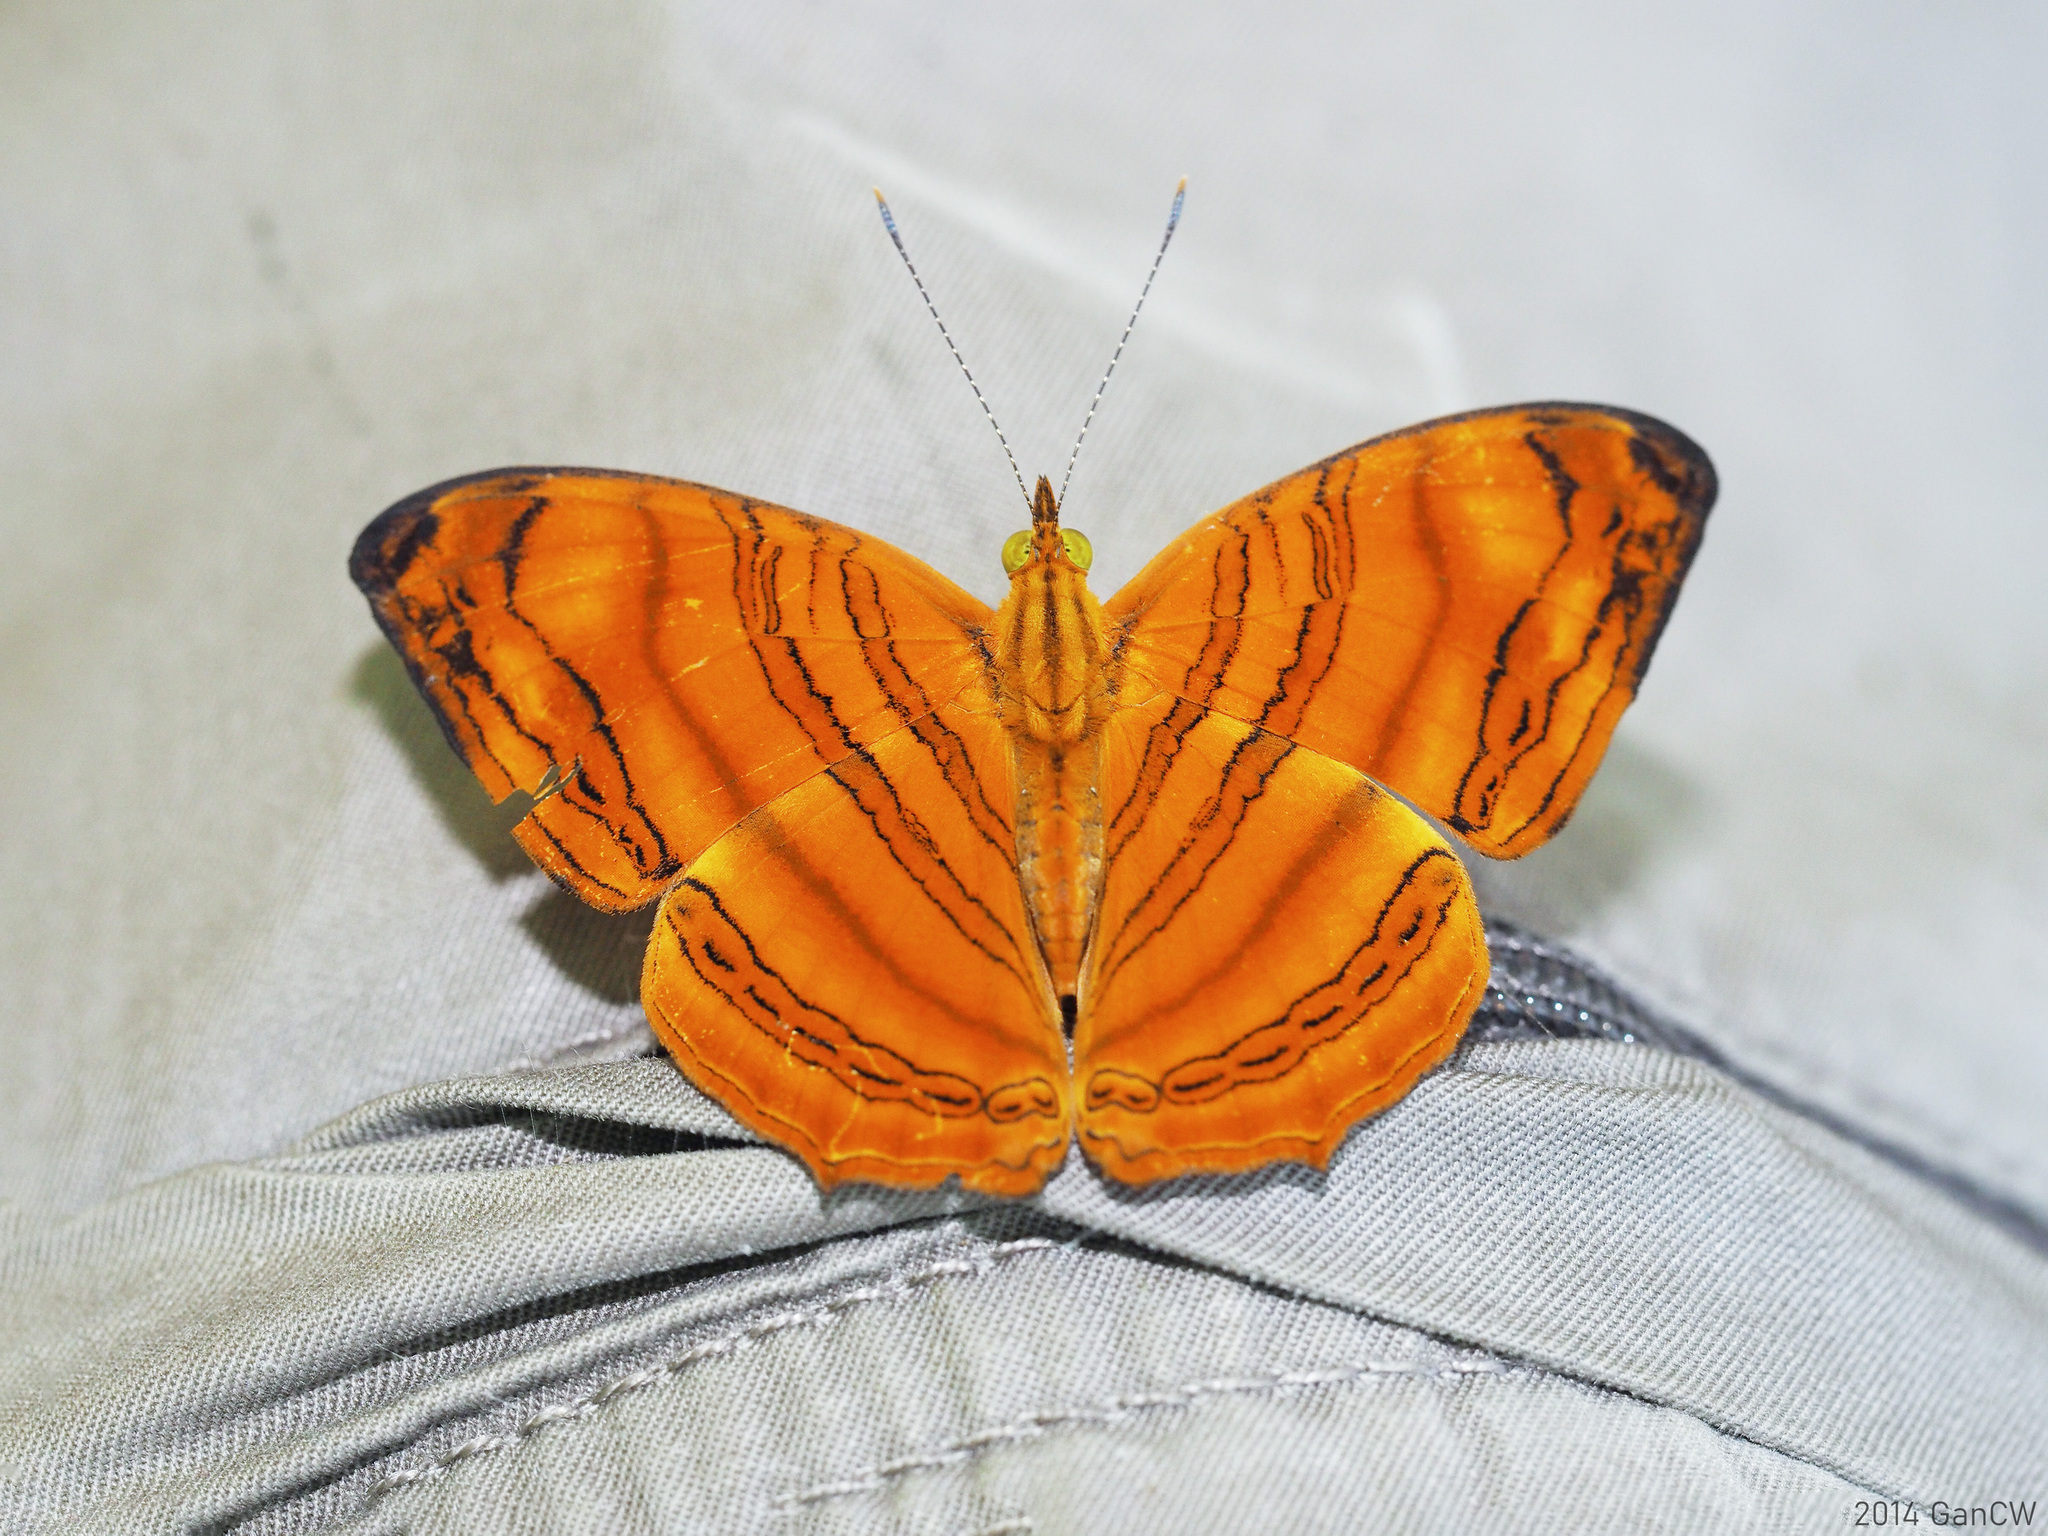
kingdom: Animalia
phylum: Arthropoda
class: Insecta
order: Lepidoptera
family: Nymphalidae
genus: Chersonesia
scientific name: Chersonesia rahria
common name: Wavy maplet
